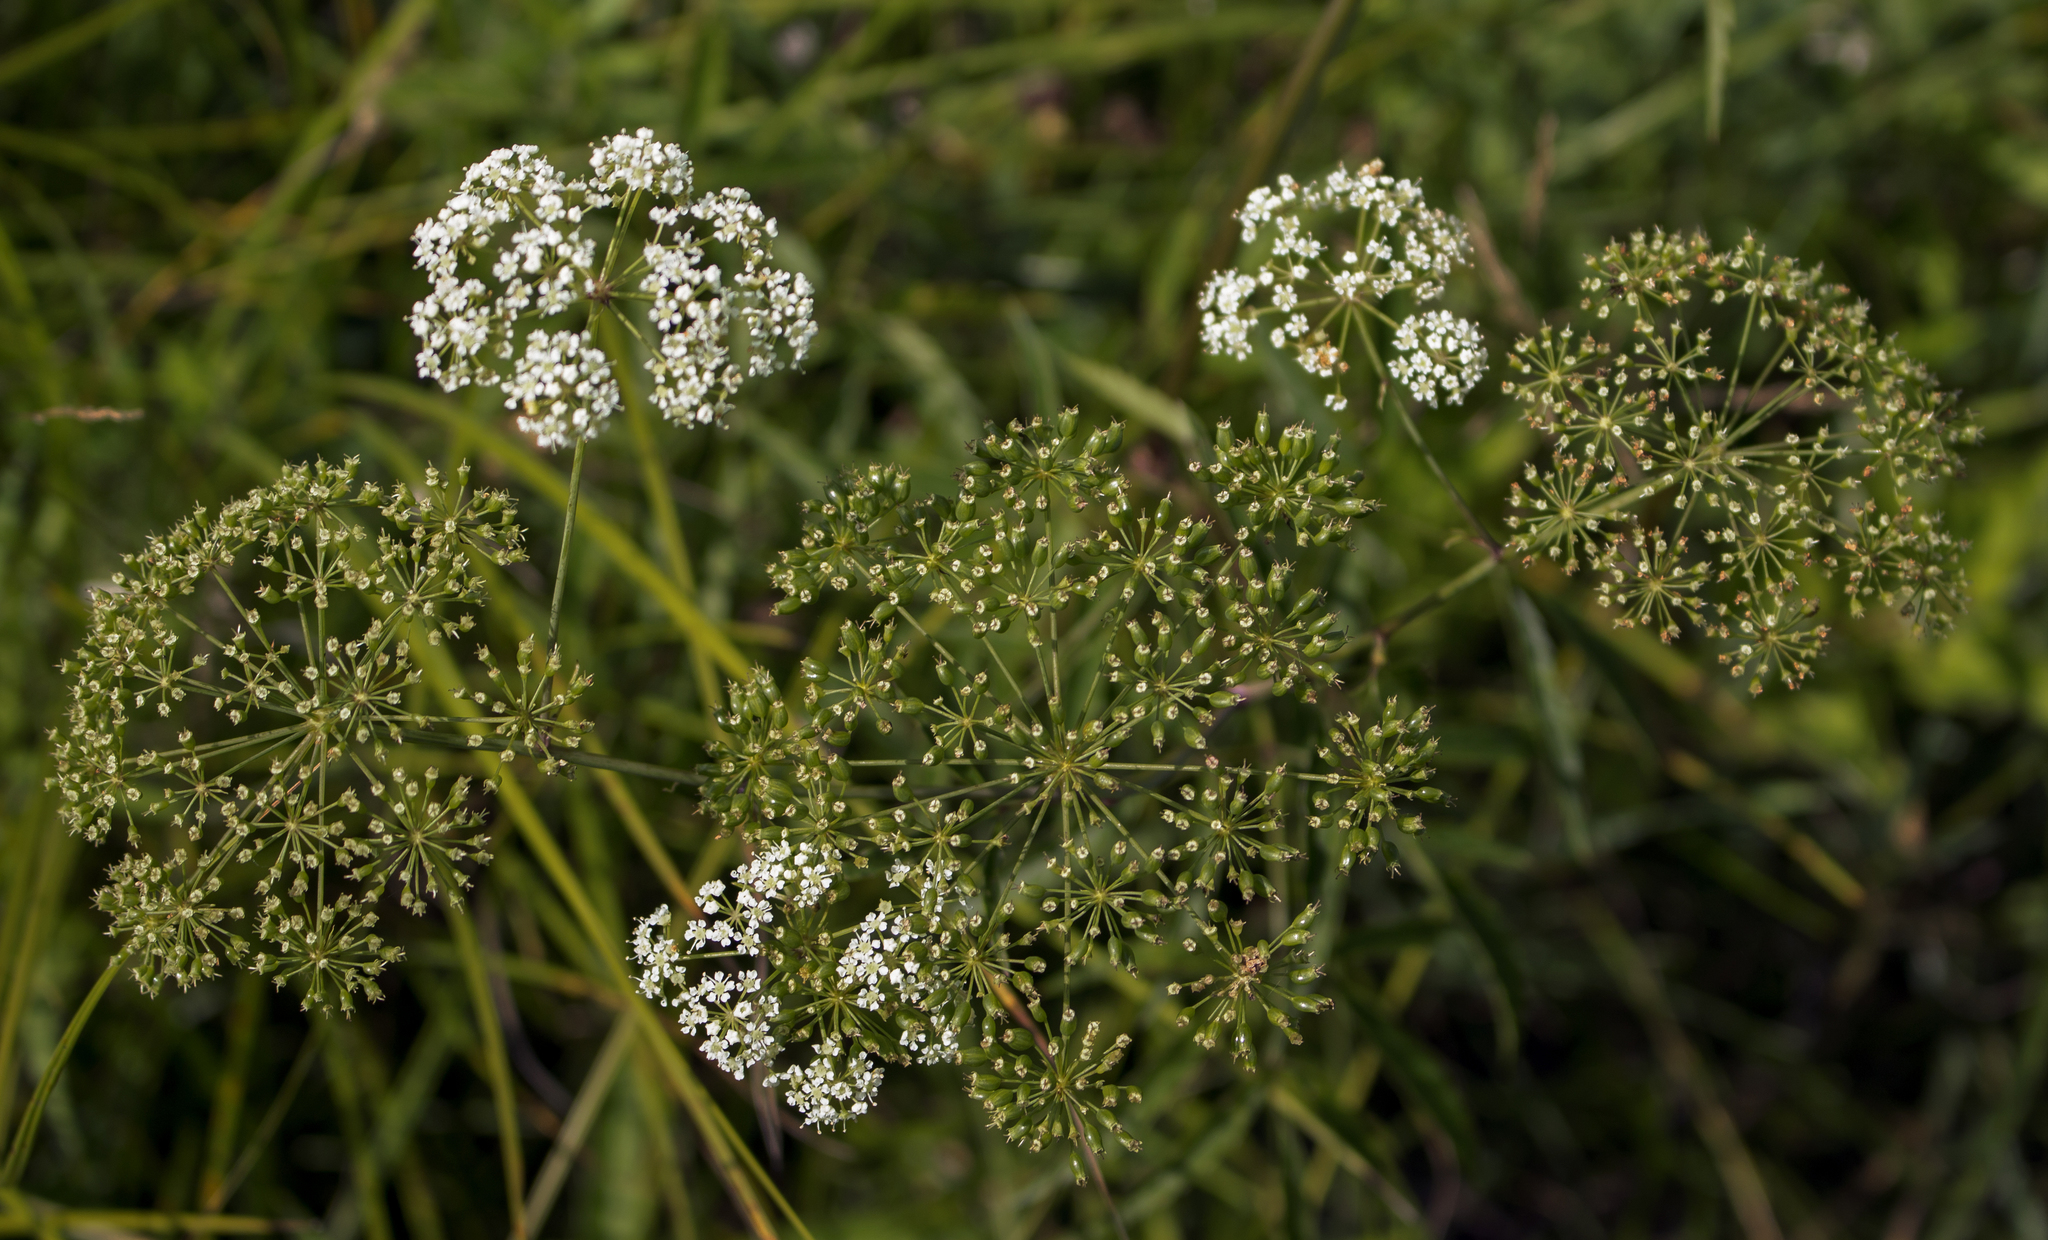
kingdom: Plantae
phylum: Tracheophyta
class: Magnoliopsida
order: Apiales
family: Apiaceae
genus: Cicuta
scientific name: Cicuta maculata
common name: Spotted cowbane
